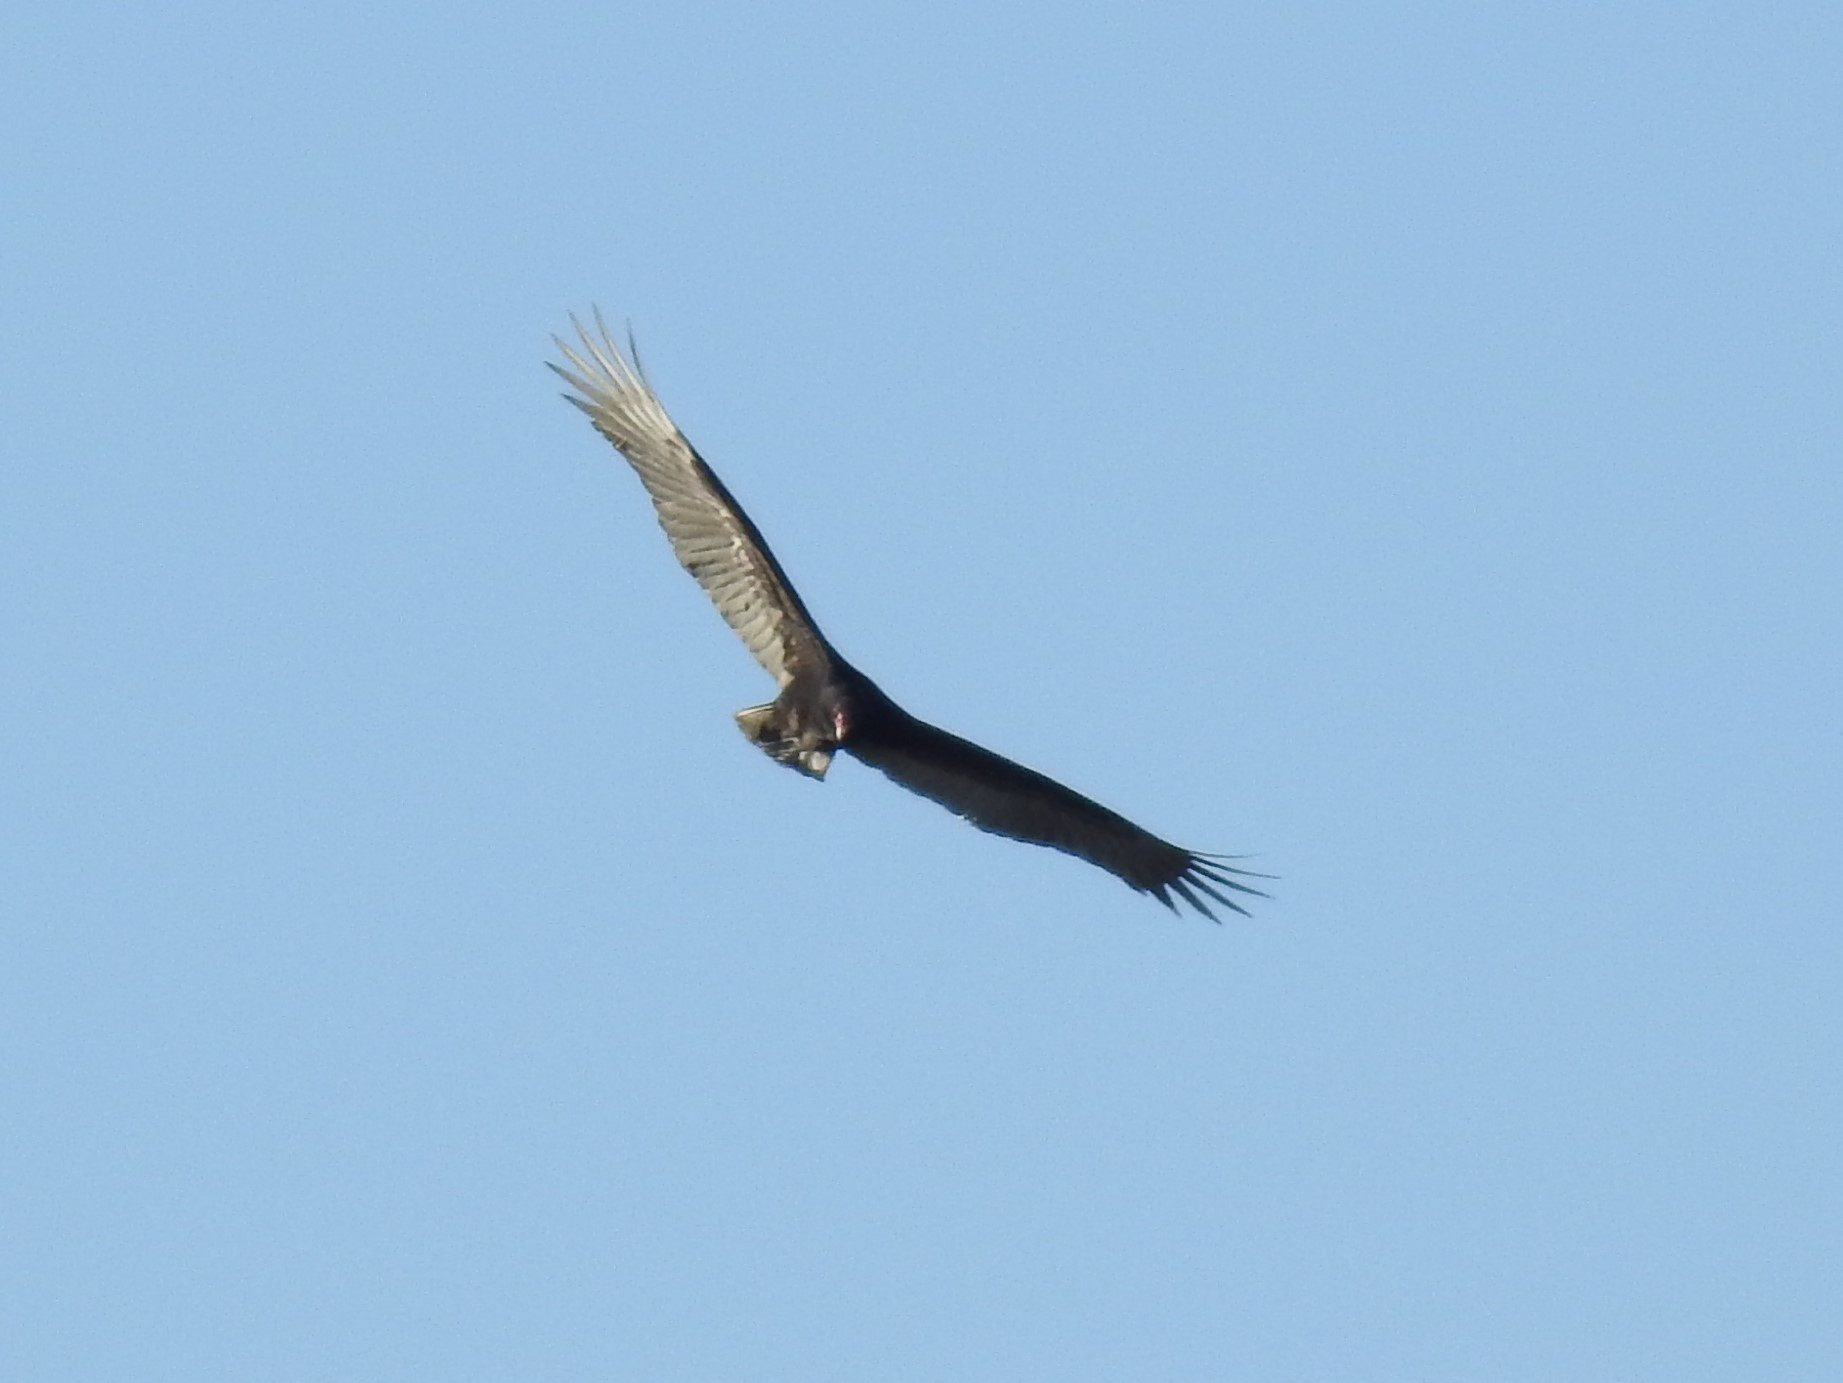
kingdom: Animalia
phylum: Chordata
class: Aves
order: Accipitriformes
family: Cathartidae
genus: Cathartes
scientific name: Cathartes aura
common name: Turkey vulture
